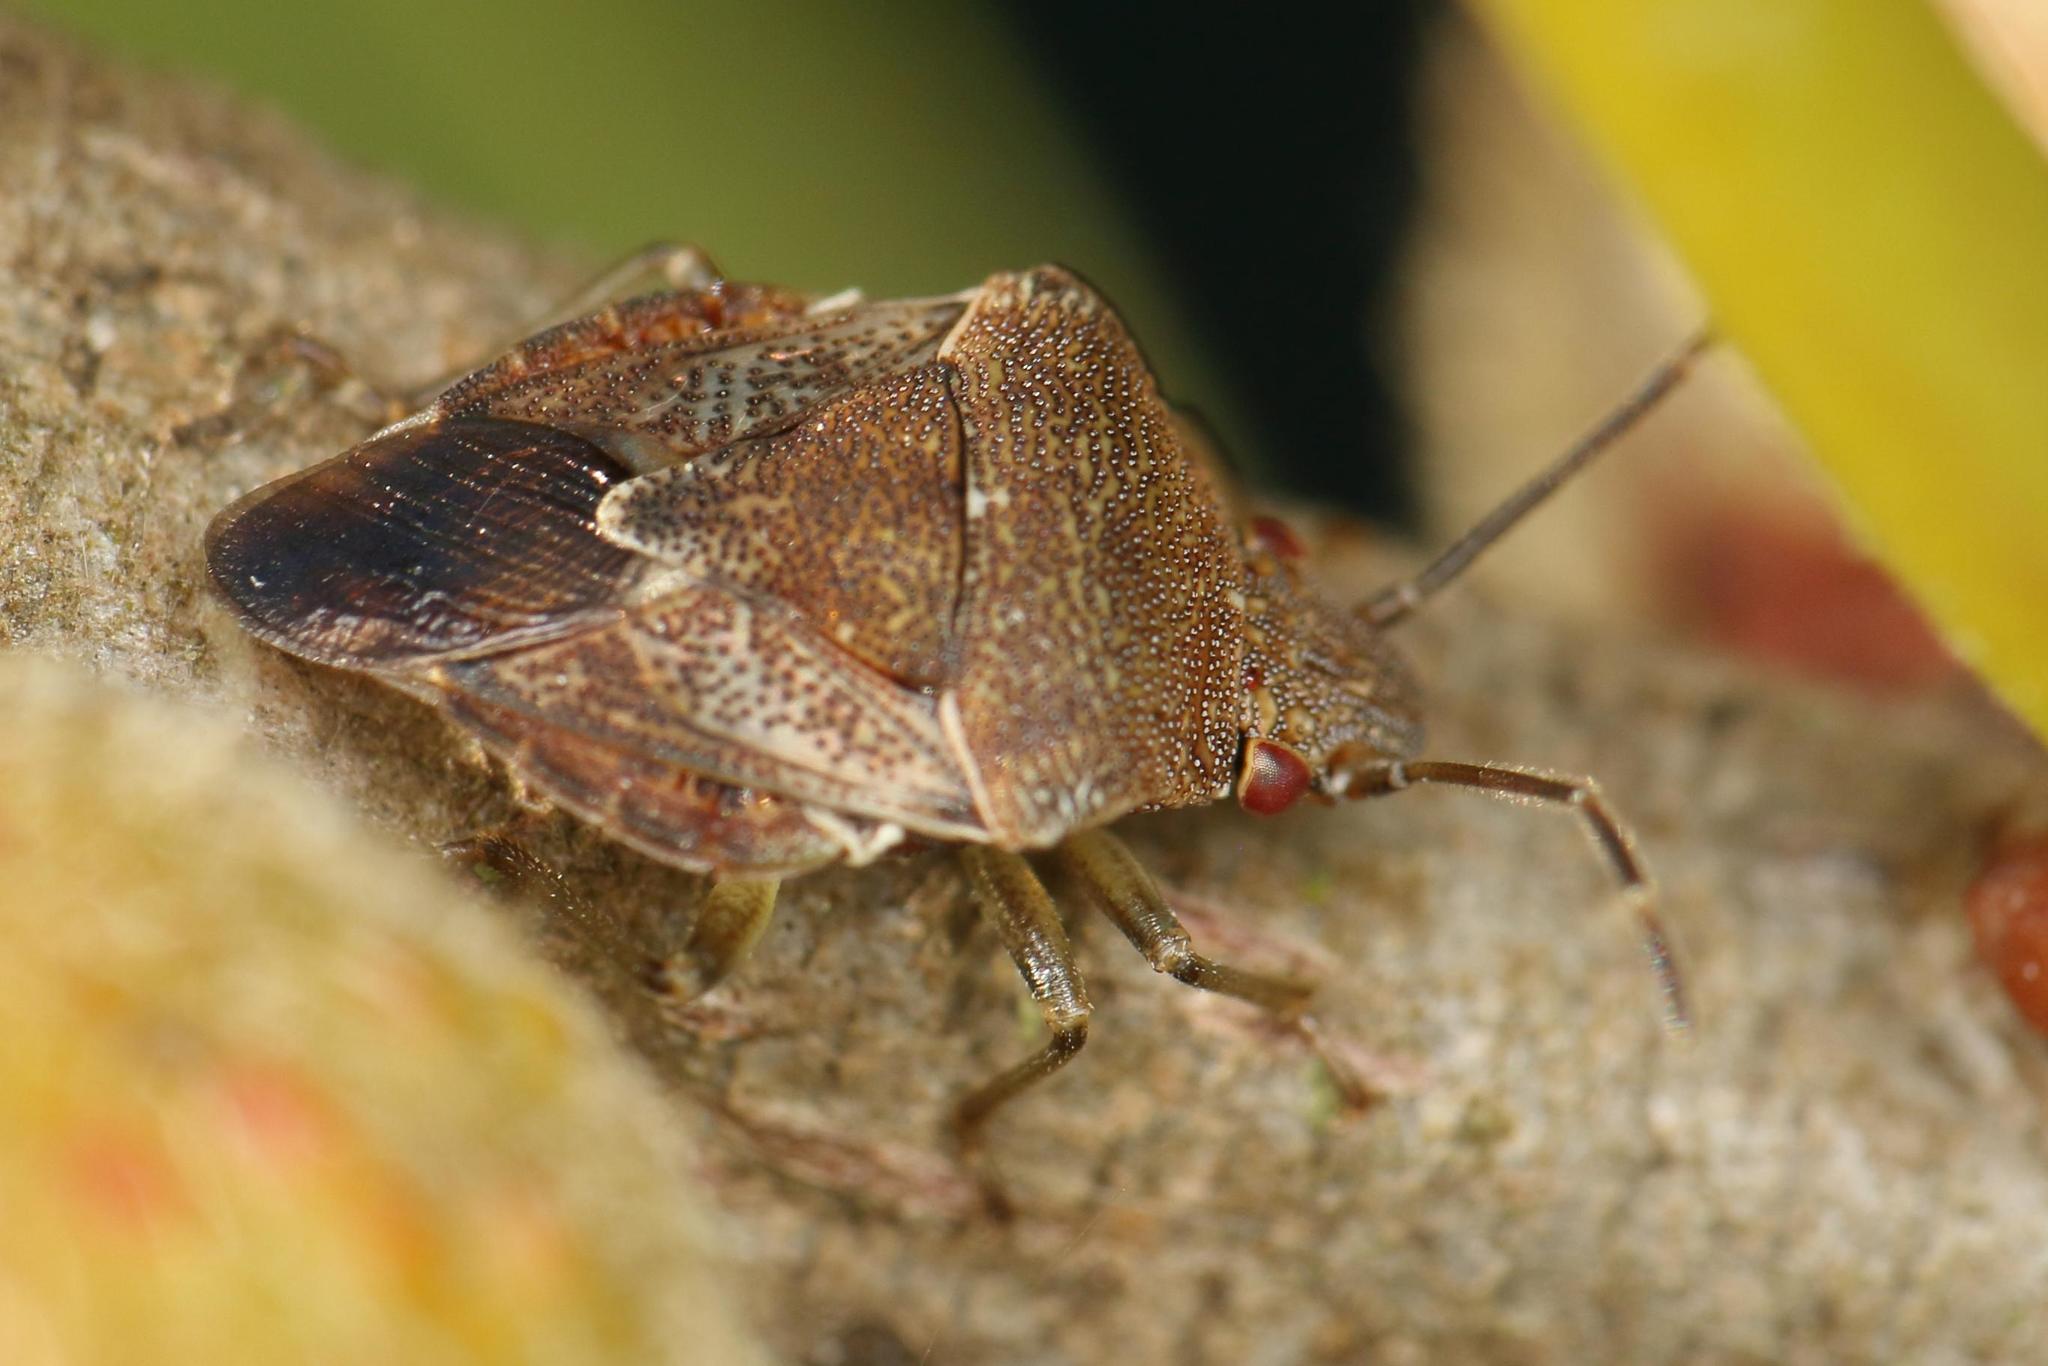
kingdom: Animalia
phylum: Arthropoda
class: Insecta
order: Hemiptera
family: Acanthosomatidae
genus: Uhlunga
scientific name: Uhlunga typica
